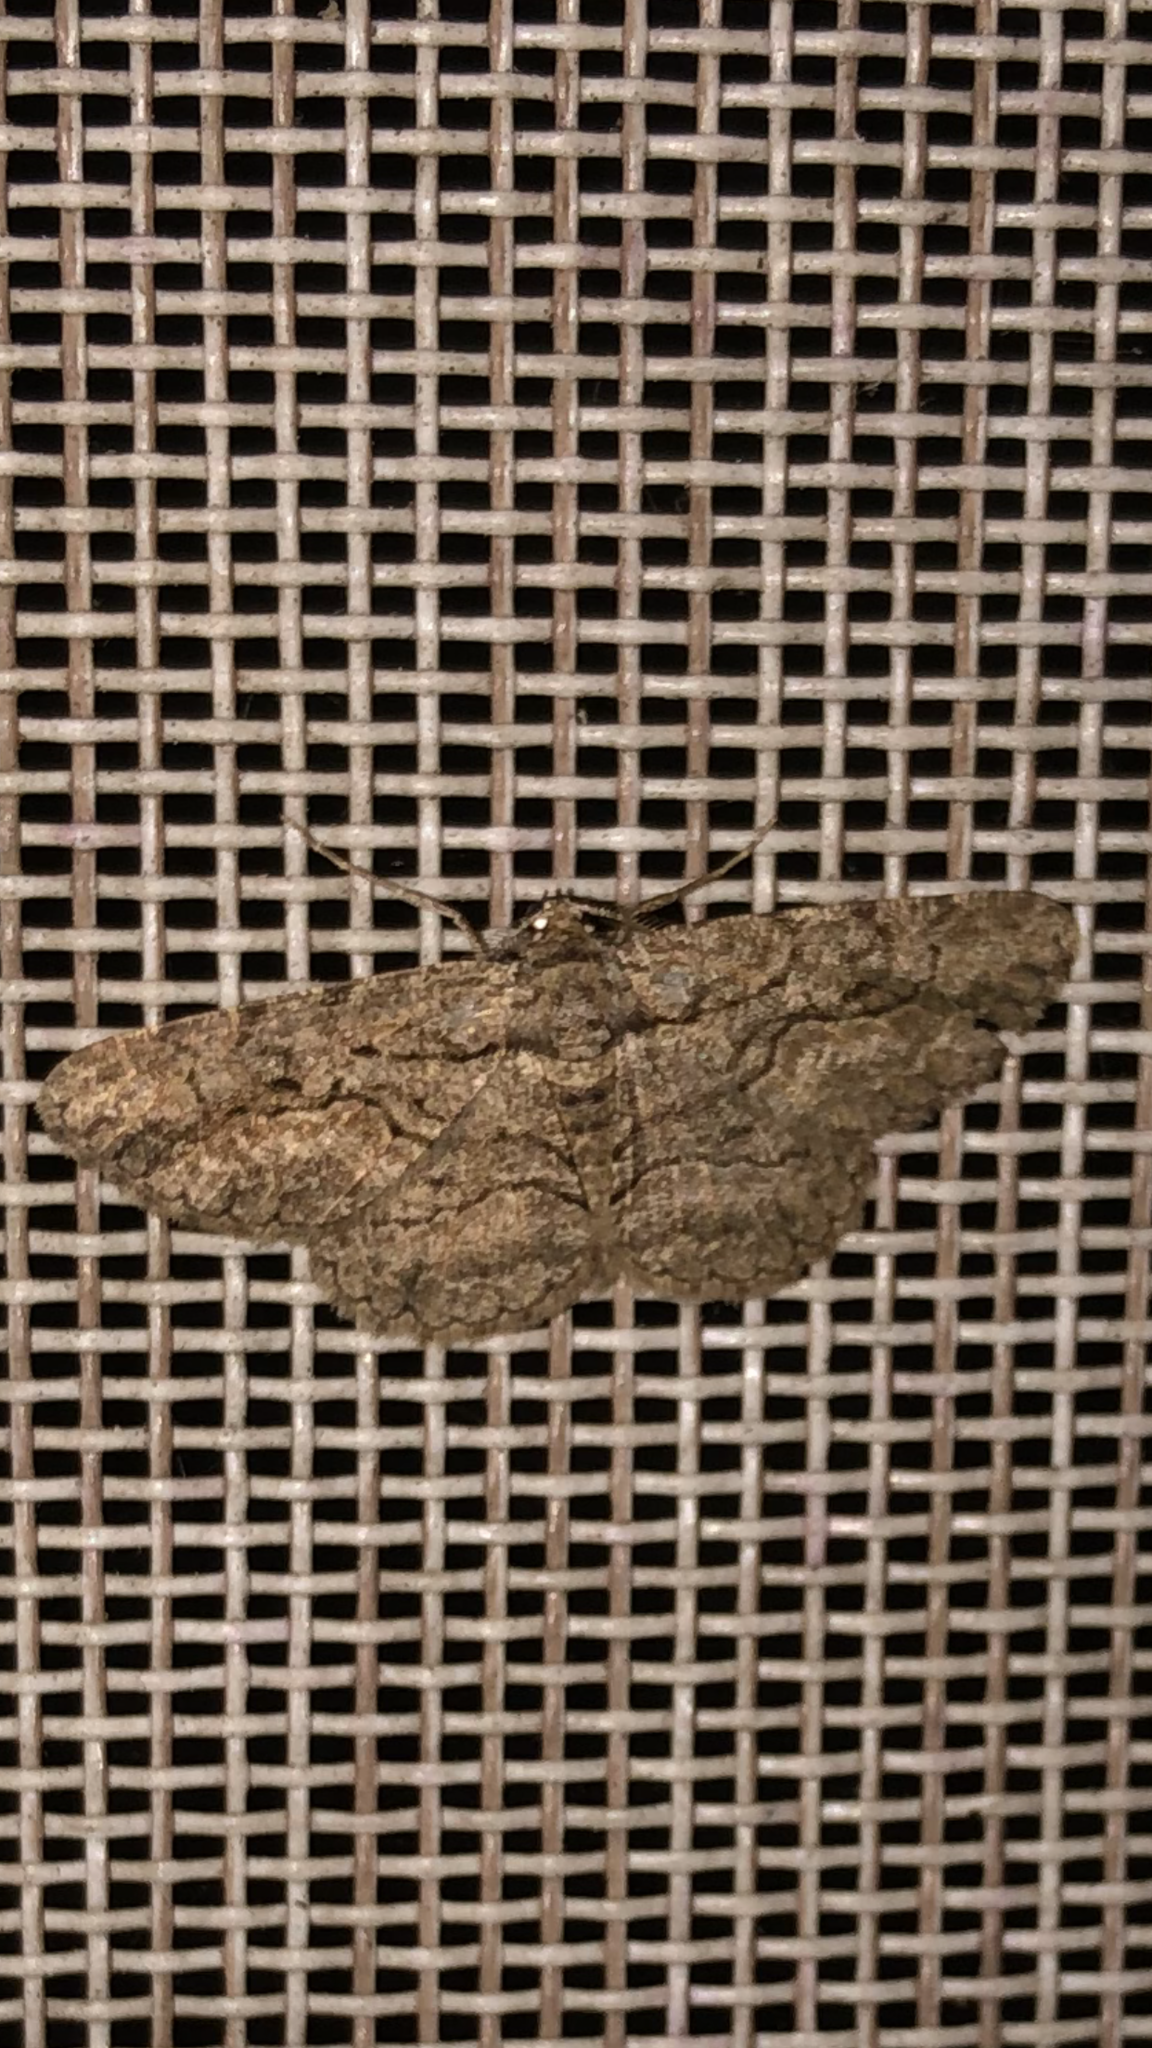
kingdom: Animalia
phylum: Arthropoda
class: Insecta
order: Lepidoptera
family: Geometridae
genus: Anavitrinella
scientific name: Anavitrinella pampinaria
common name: Common gray
